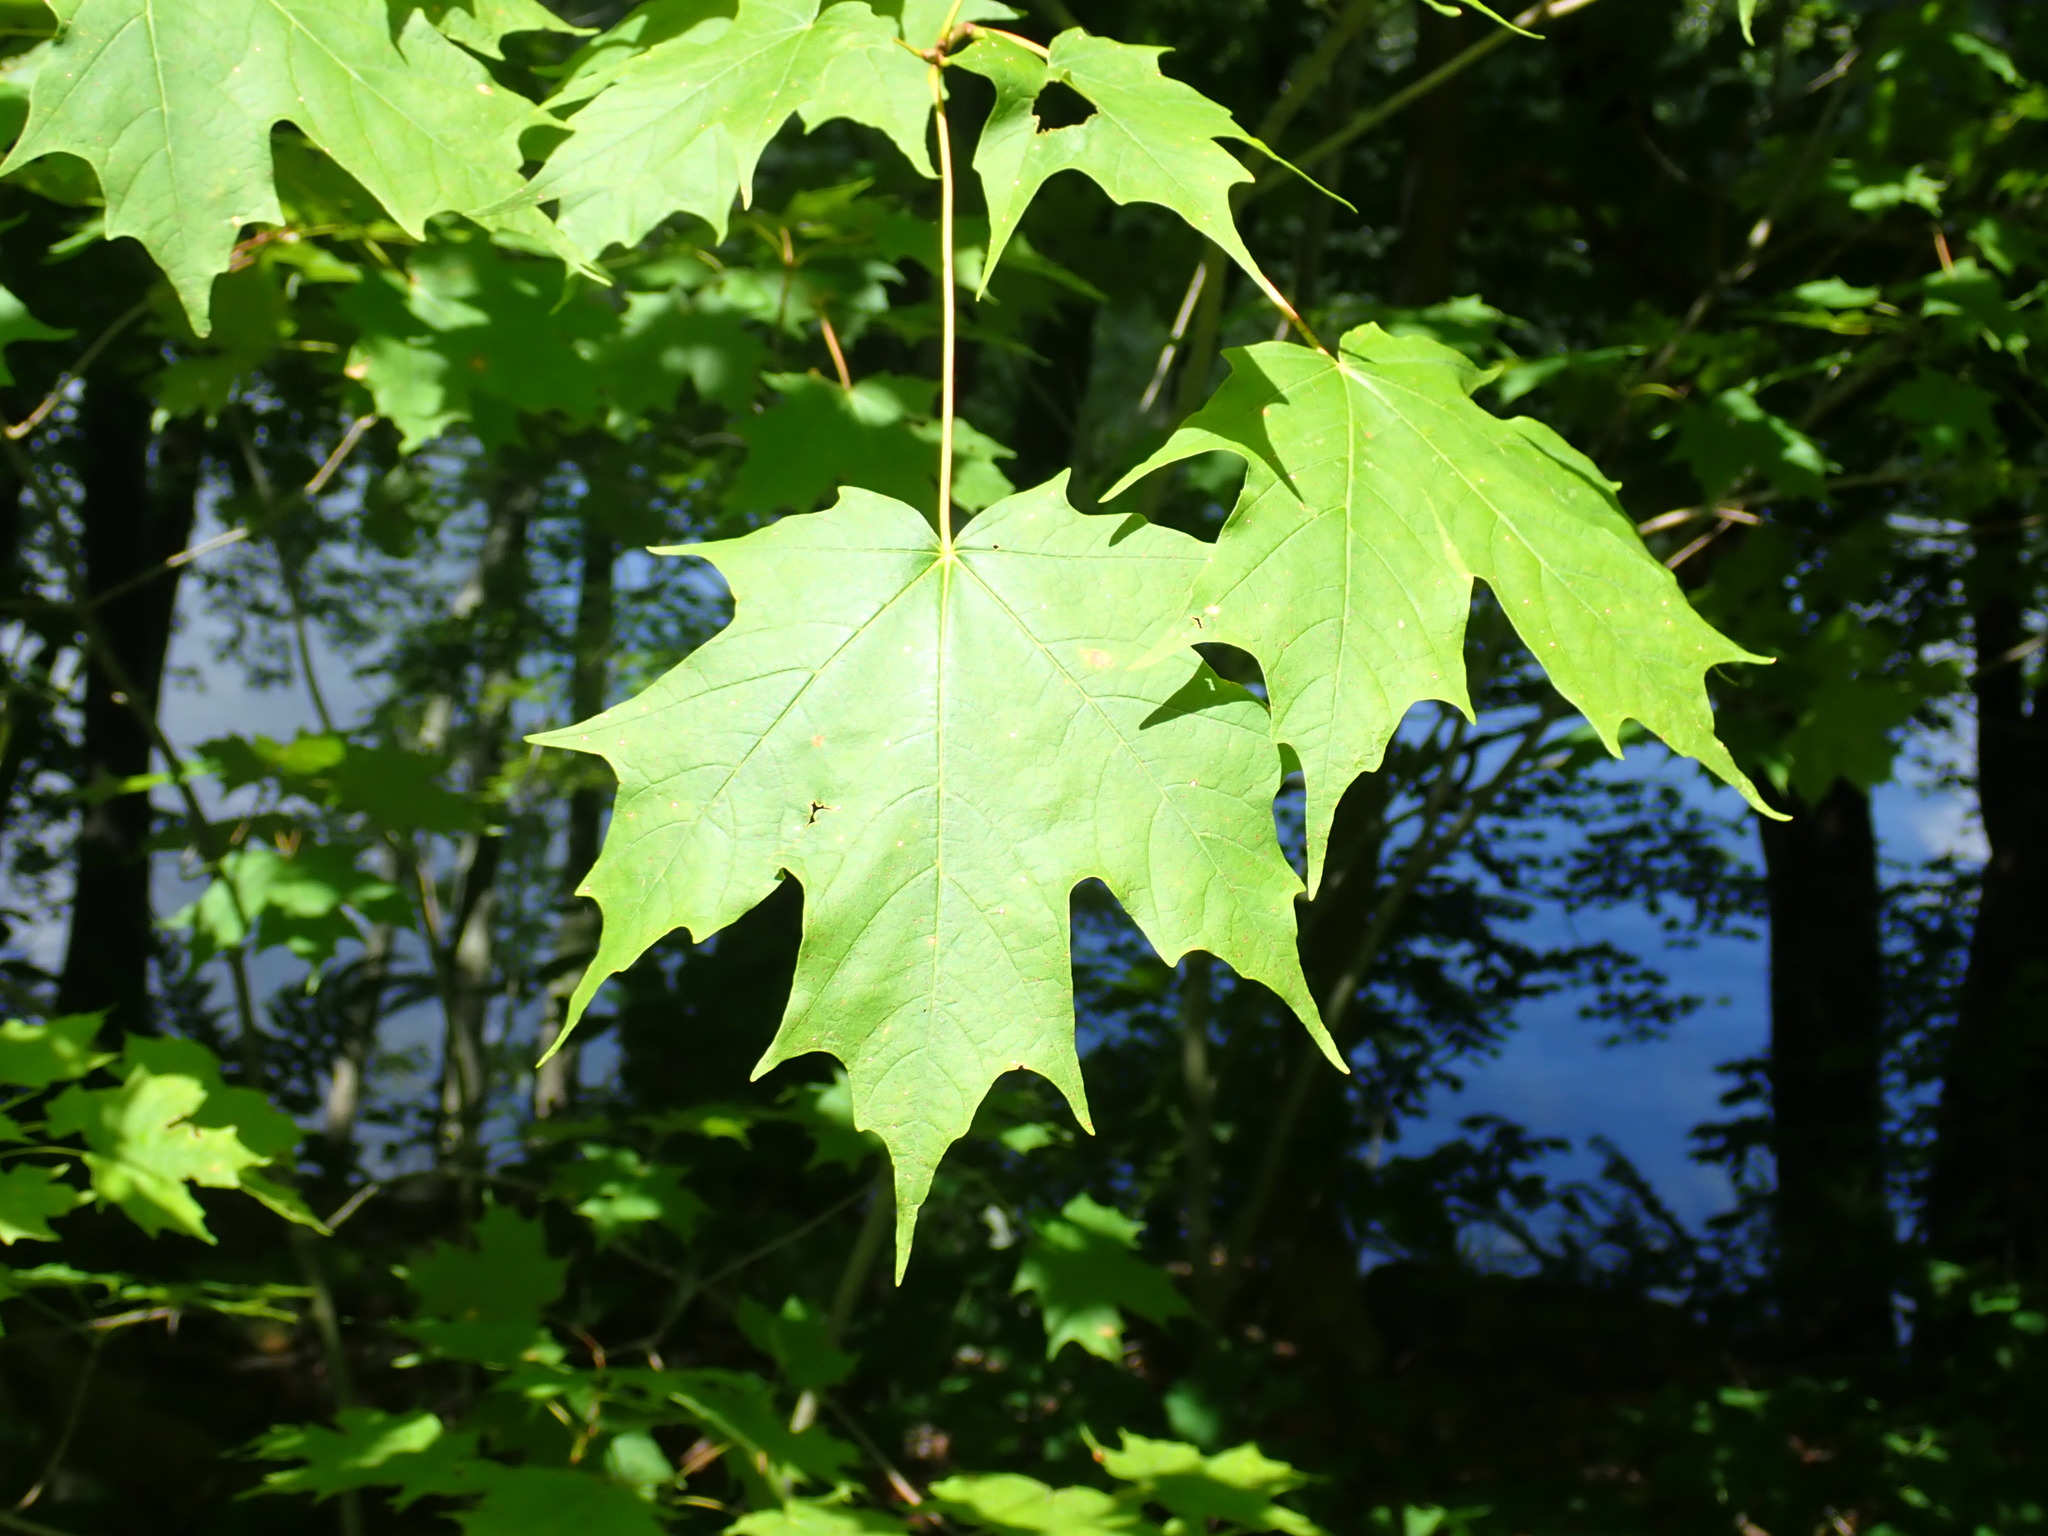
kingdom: Plantae
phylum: Tracheophyta
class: Magnoliopsida
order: Sapindales
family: Sapindaceae
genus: Acer
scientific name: Acer saccharum
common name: Sugar maple
